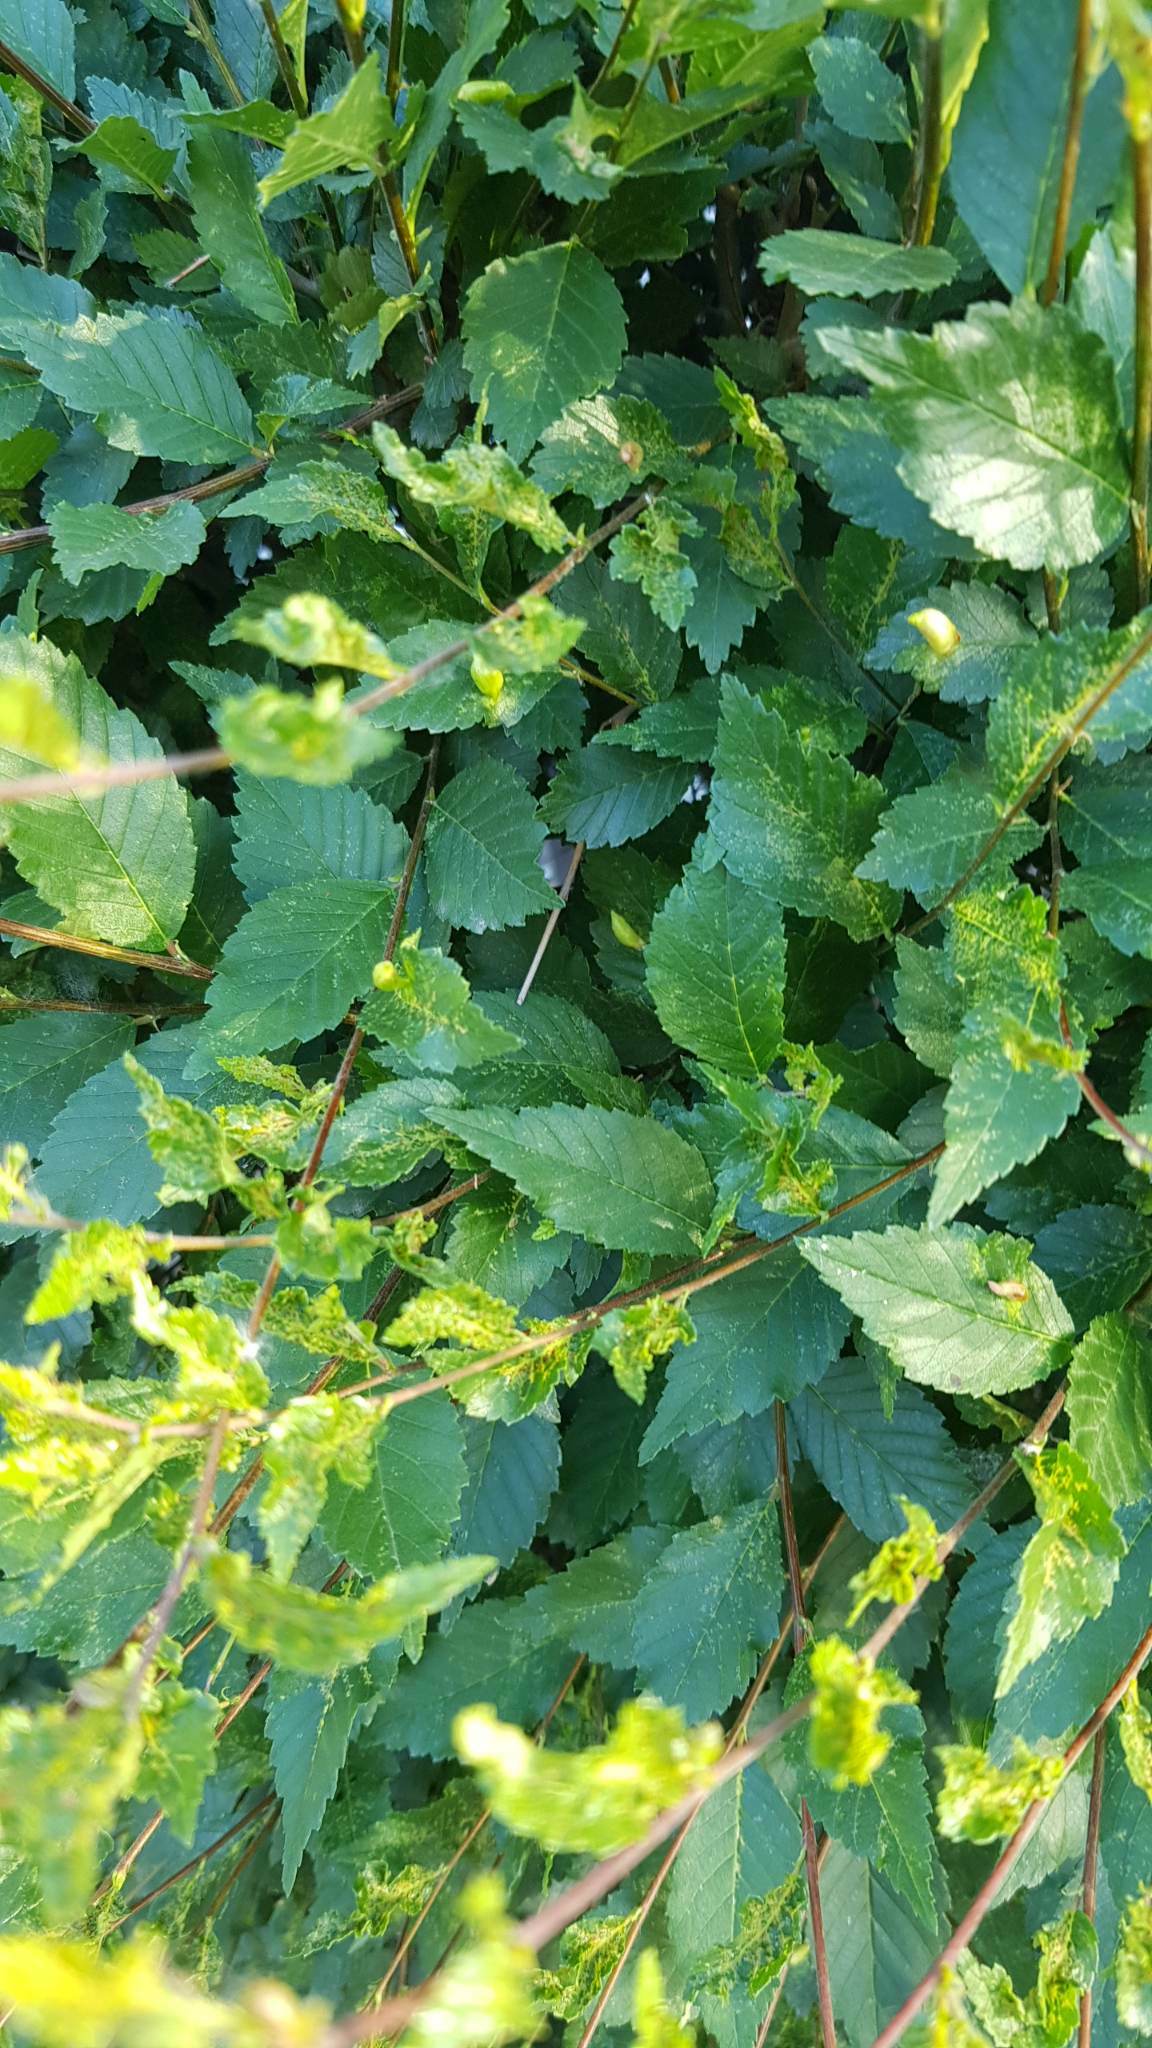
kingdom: Plantae
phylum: Tracheophyta
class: Magnoliopsida
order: Rosales
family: Ulmaceae
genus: Ulmus
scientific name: Ulmus pumila
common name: Siberian elm
